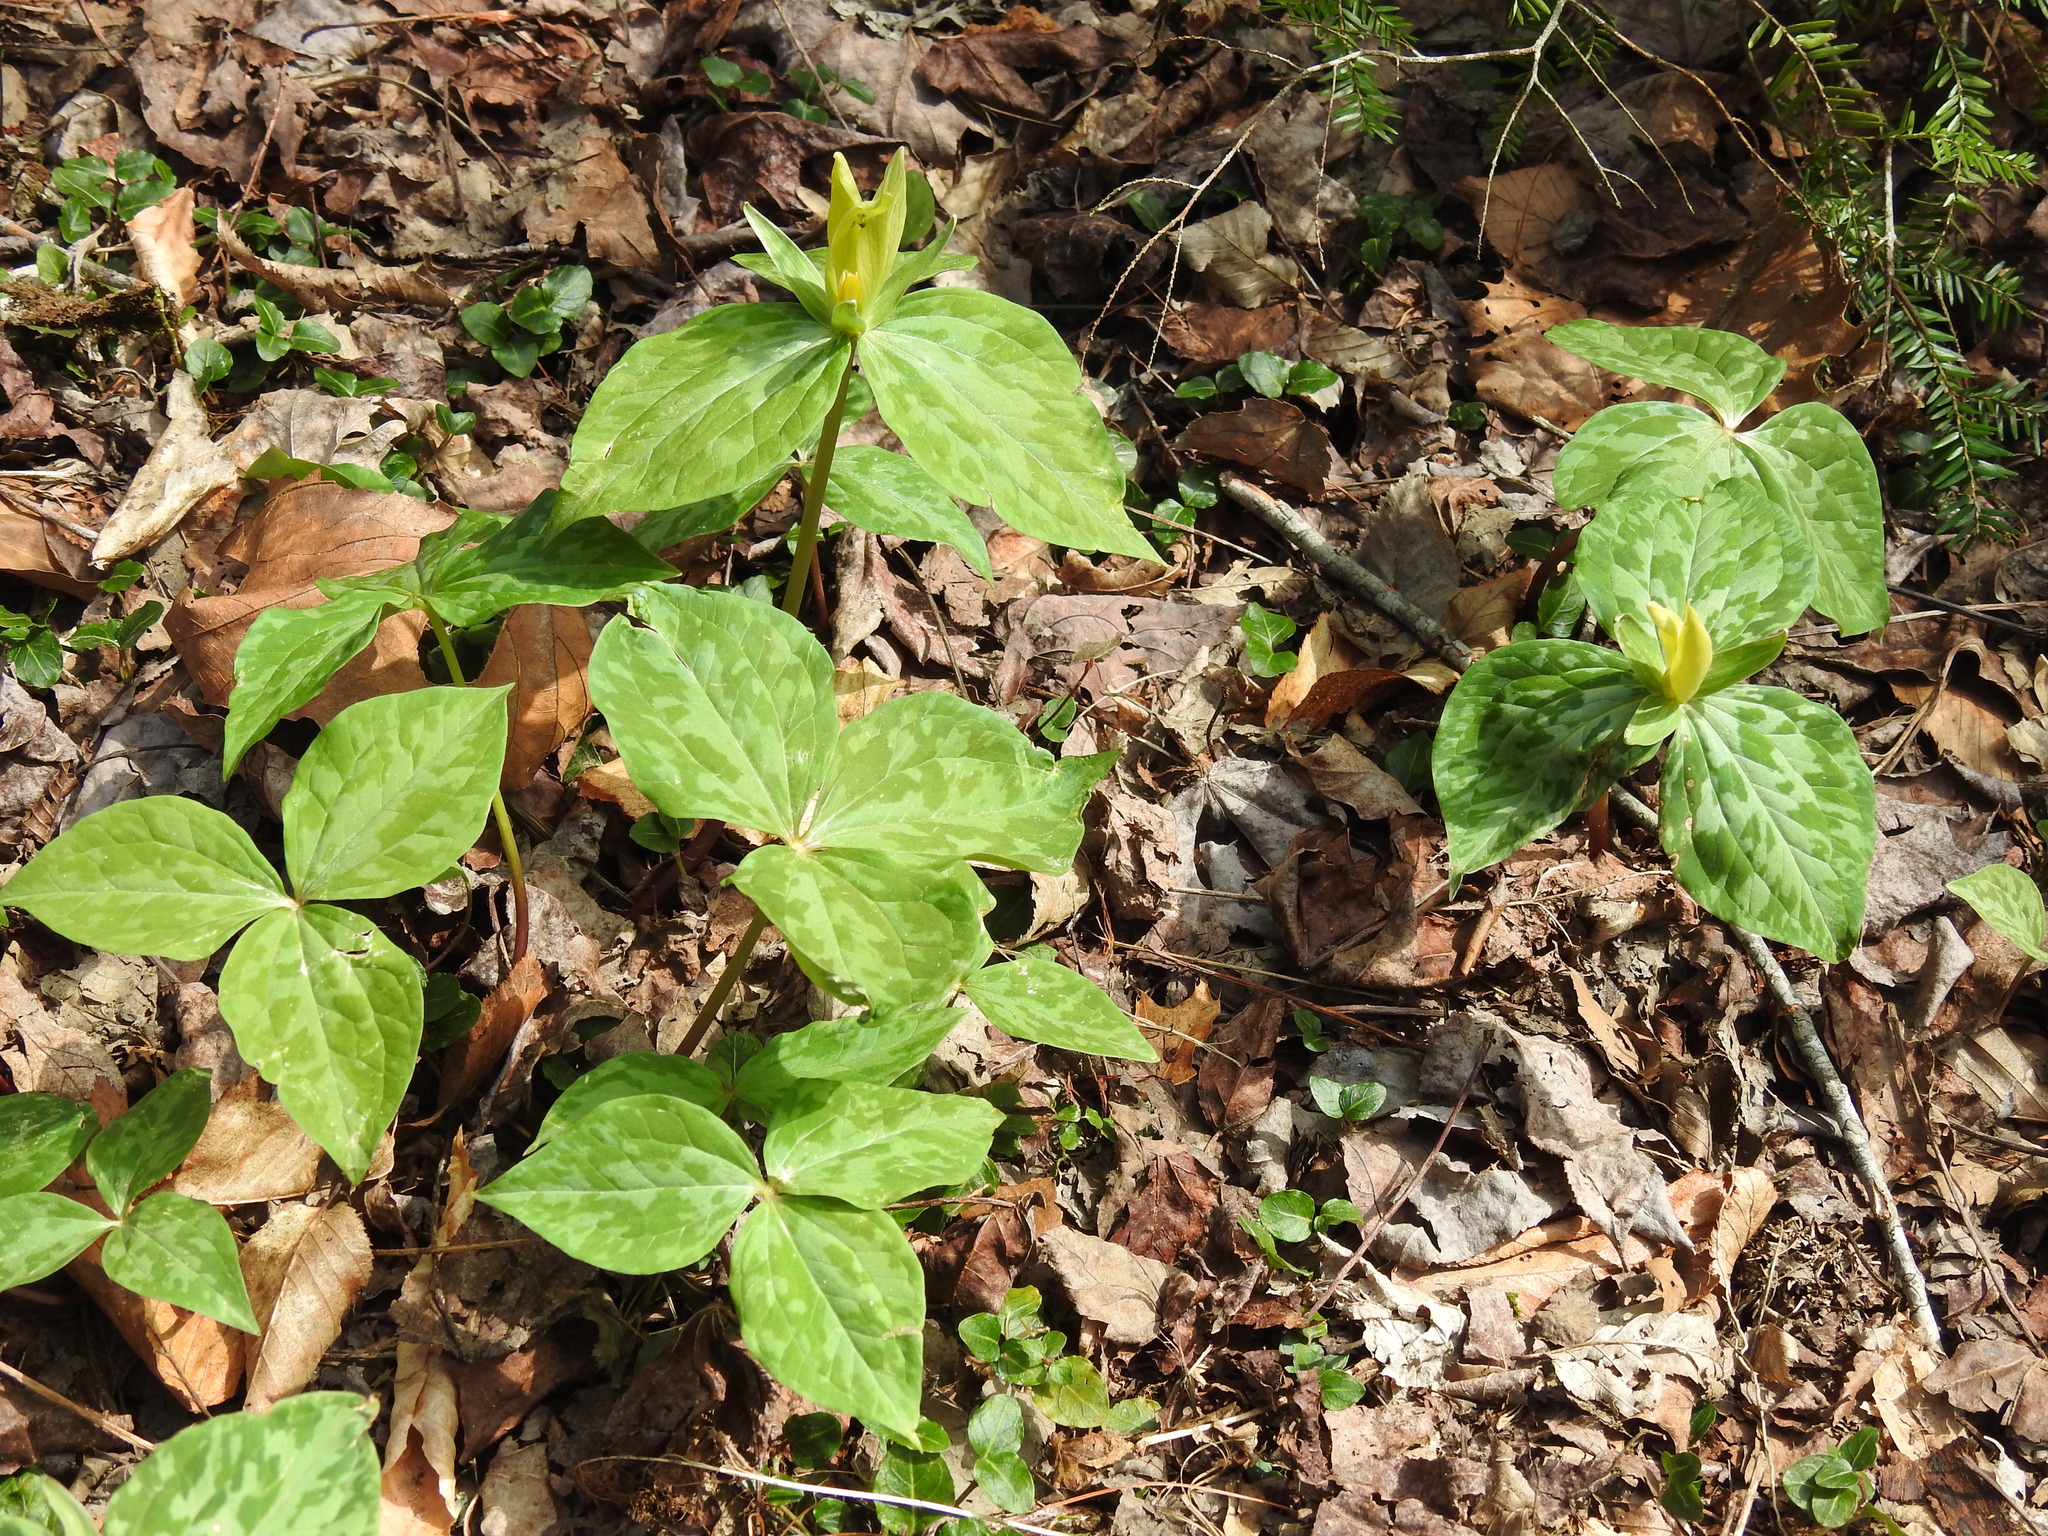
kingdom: Plantae
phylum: Tracheophyta
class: Liliopsida
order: Liliales
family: Melanthiaceae
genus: Trillium
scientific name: Trillium luteum
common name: Wax trillium
